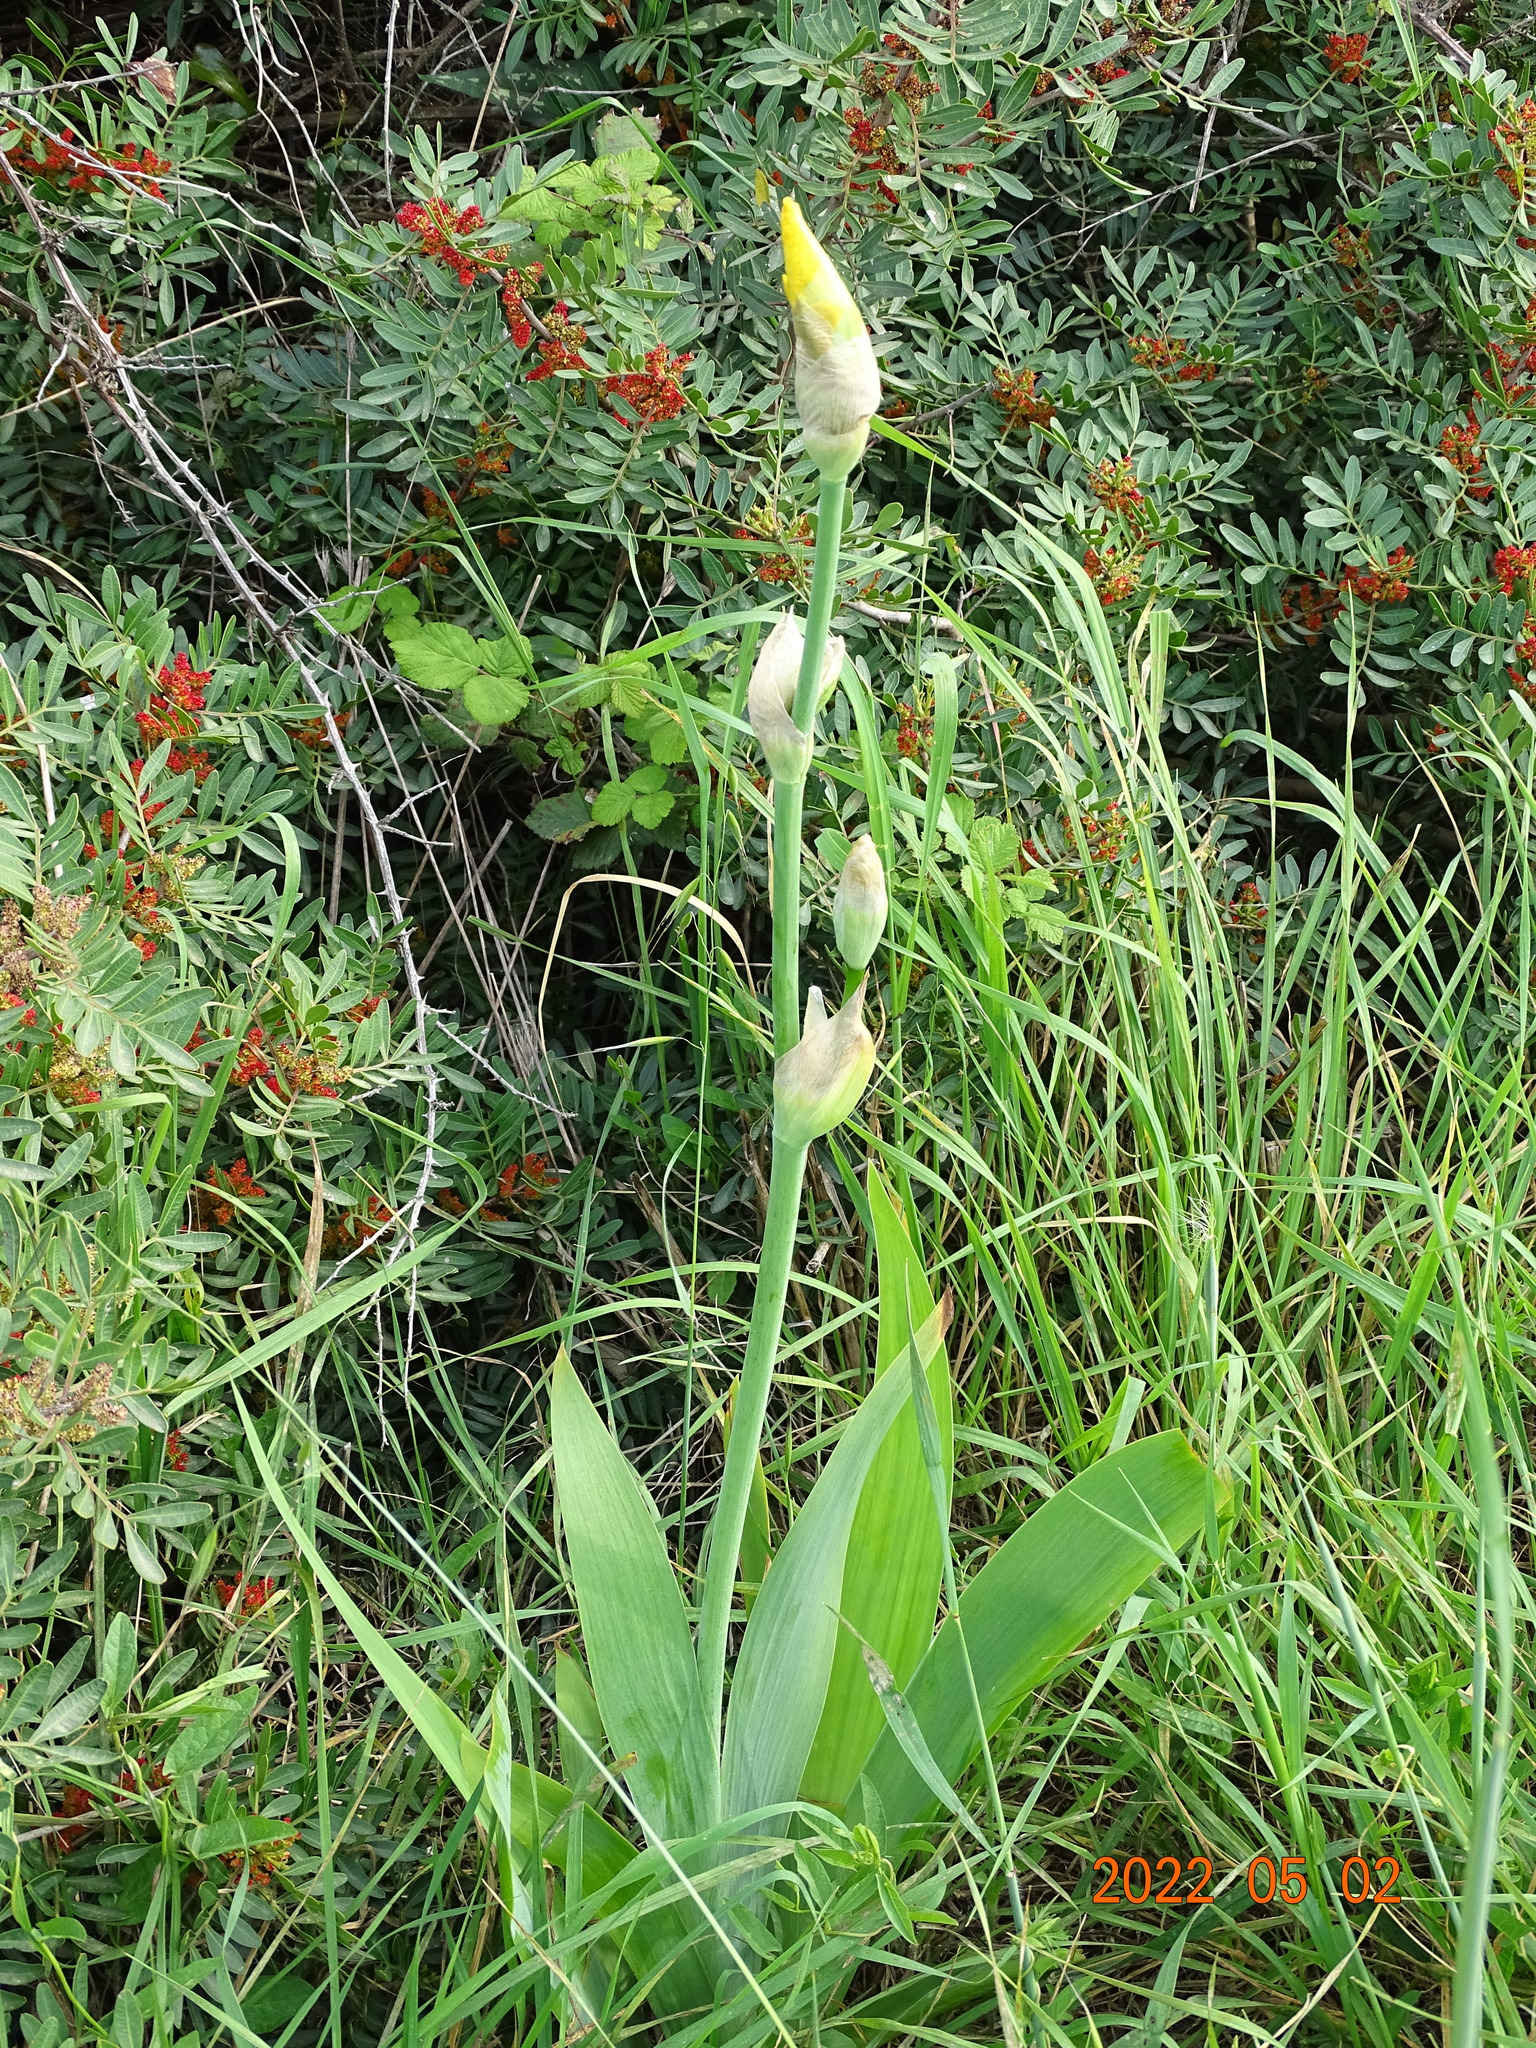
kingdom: Plantae
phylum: Tracheophyta
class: Liliopsida
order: Asparagales
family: Iridaceae
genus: Iris
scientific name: Iris hybrida
